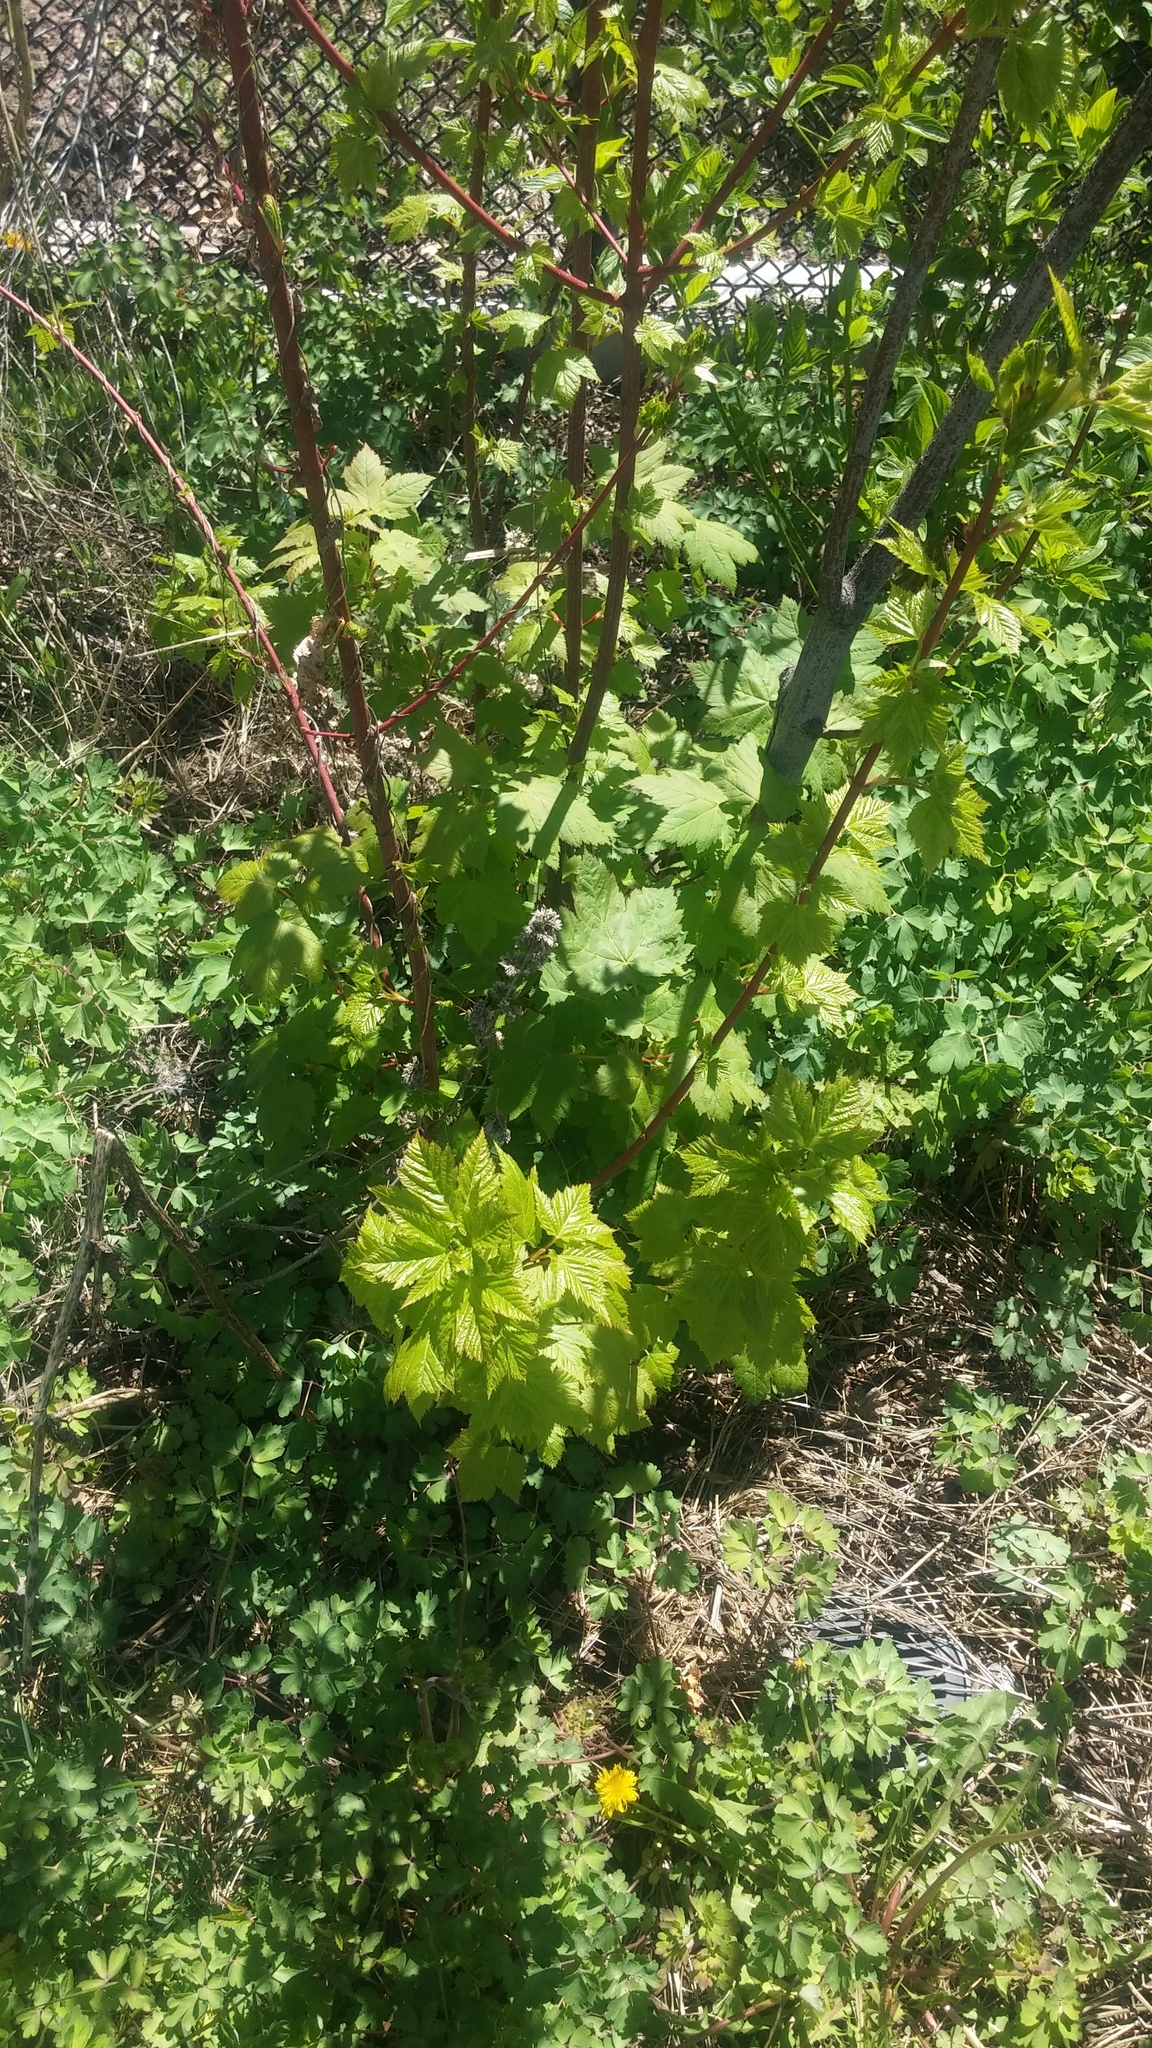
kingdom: Plantae
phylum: Tracheophyta
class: Magnoliopsida
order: Sapindales
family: Sapindaceae
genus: Acer
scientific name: Acer glabrum
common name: Rocky mountain maple
